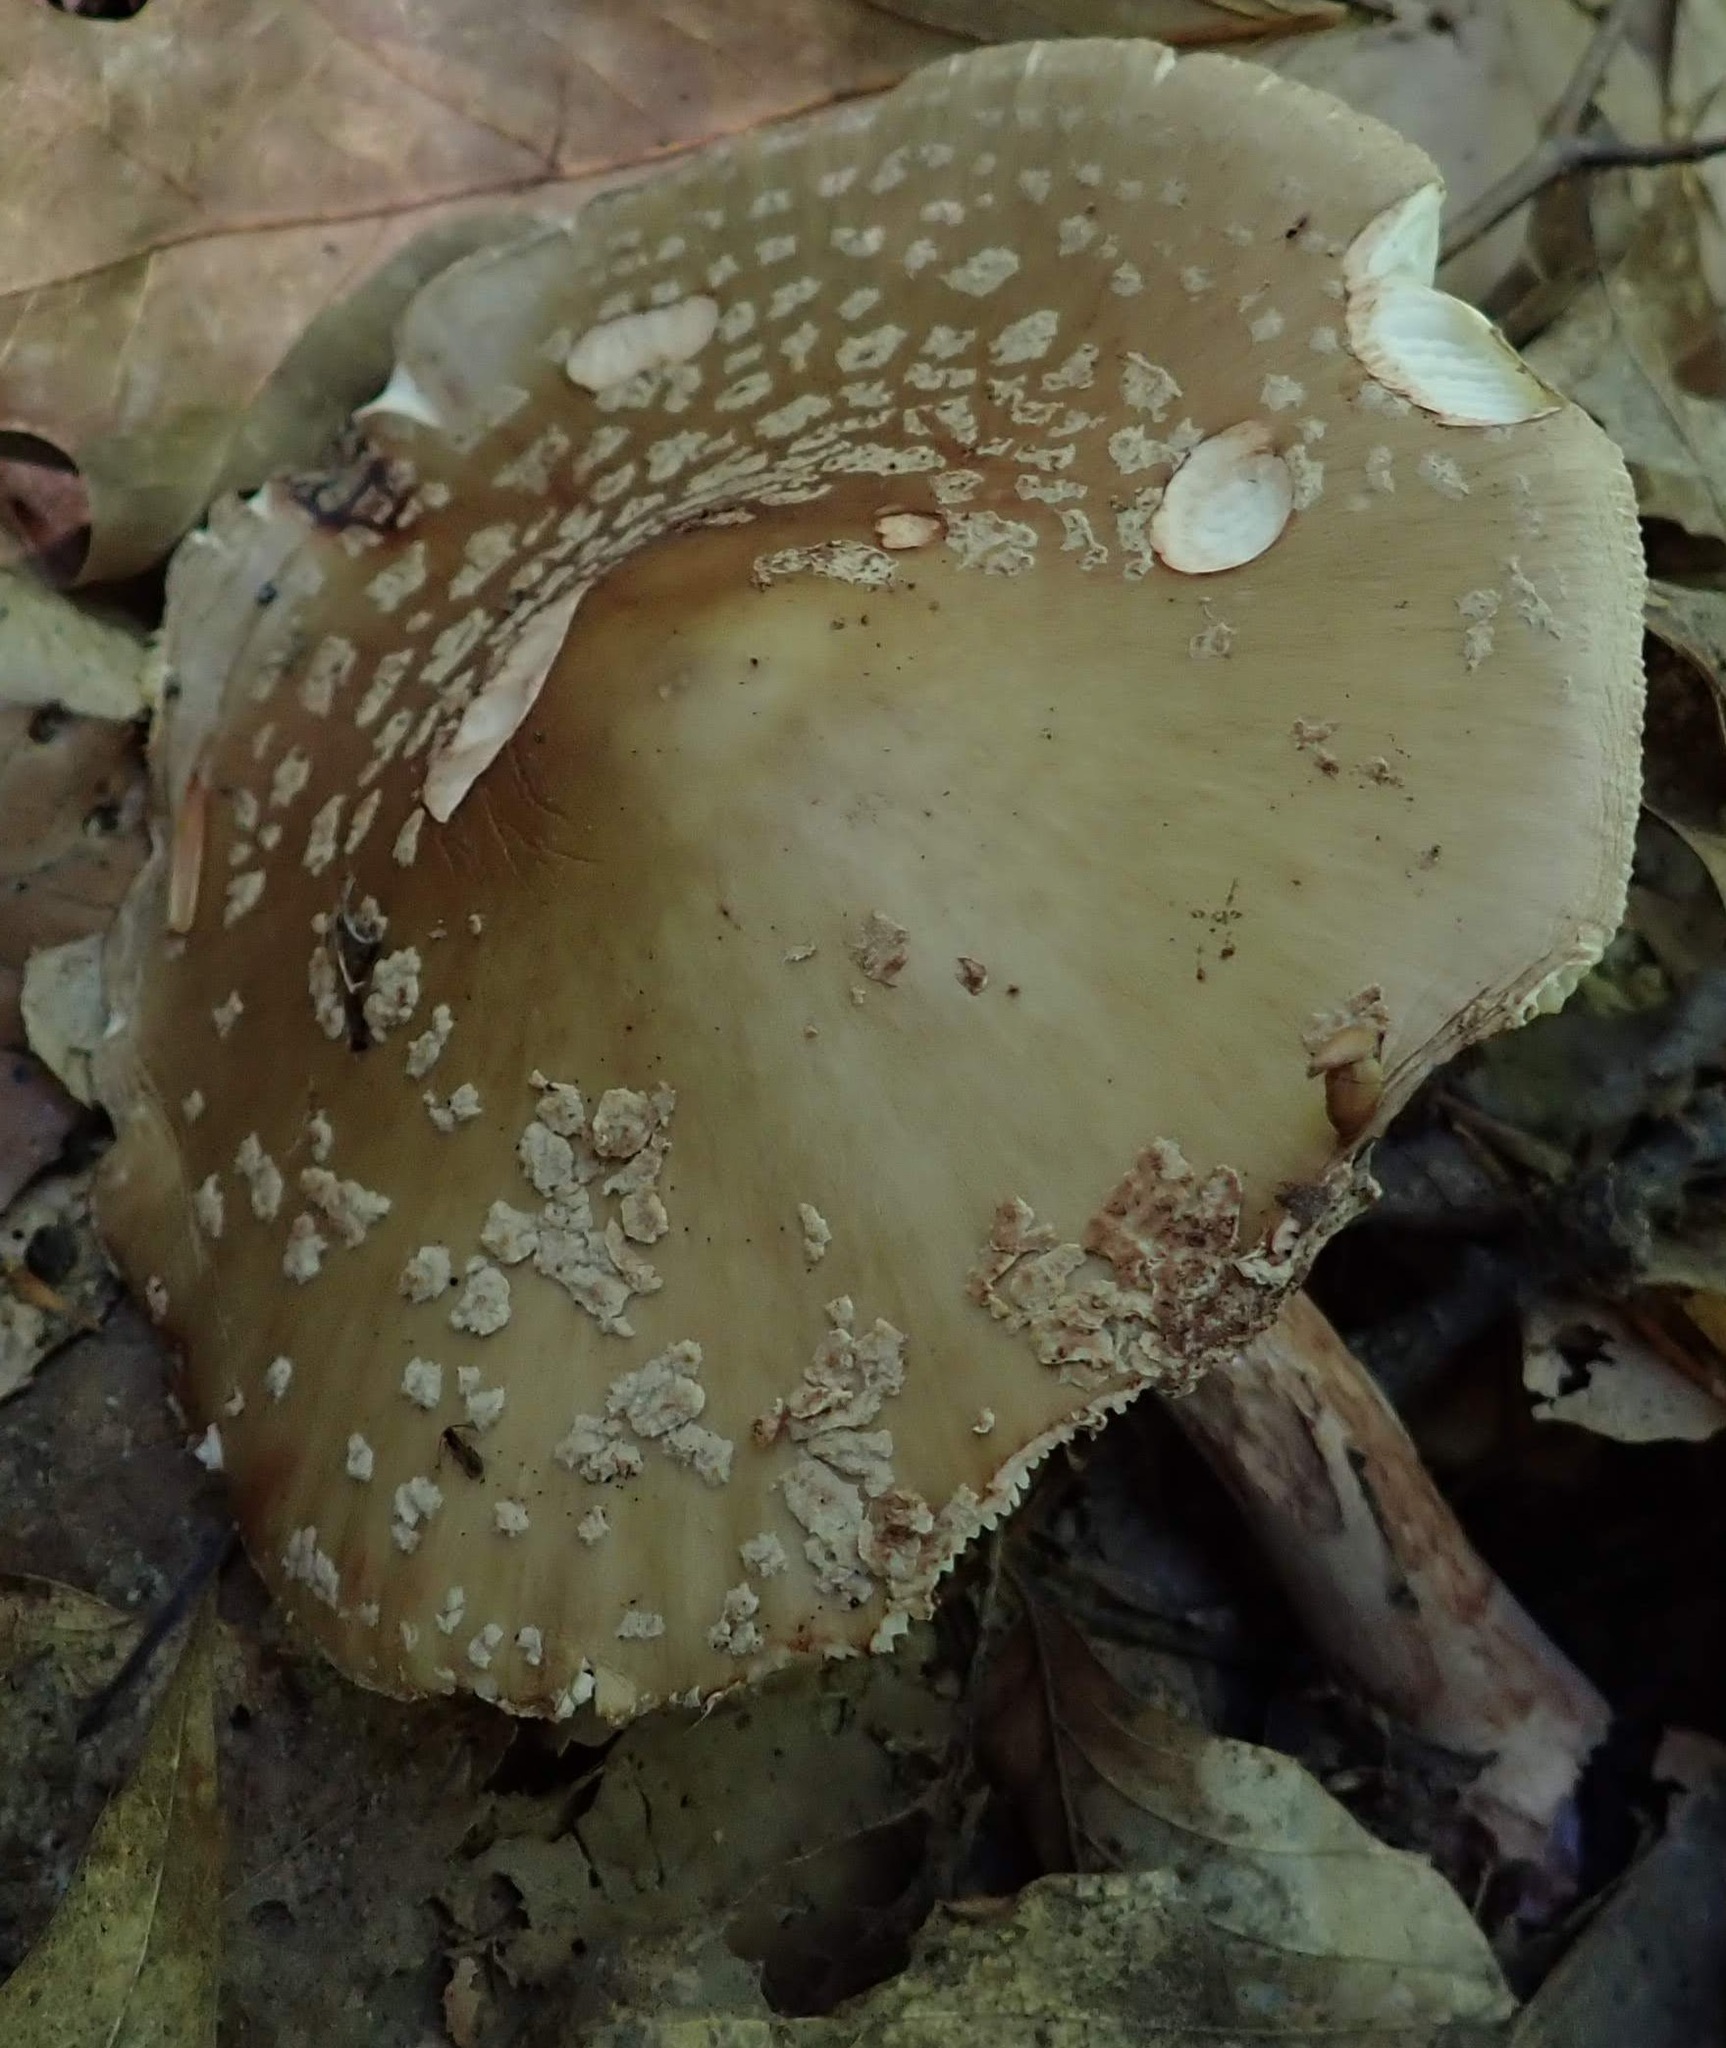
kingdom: Fungi
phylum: Basidiomycota
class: Agaricomycetes
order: Agaricales
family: Amanitaceae
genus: Amanita
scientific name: Amanita
